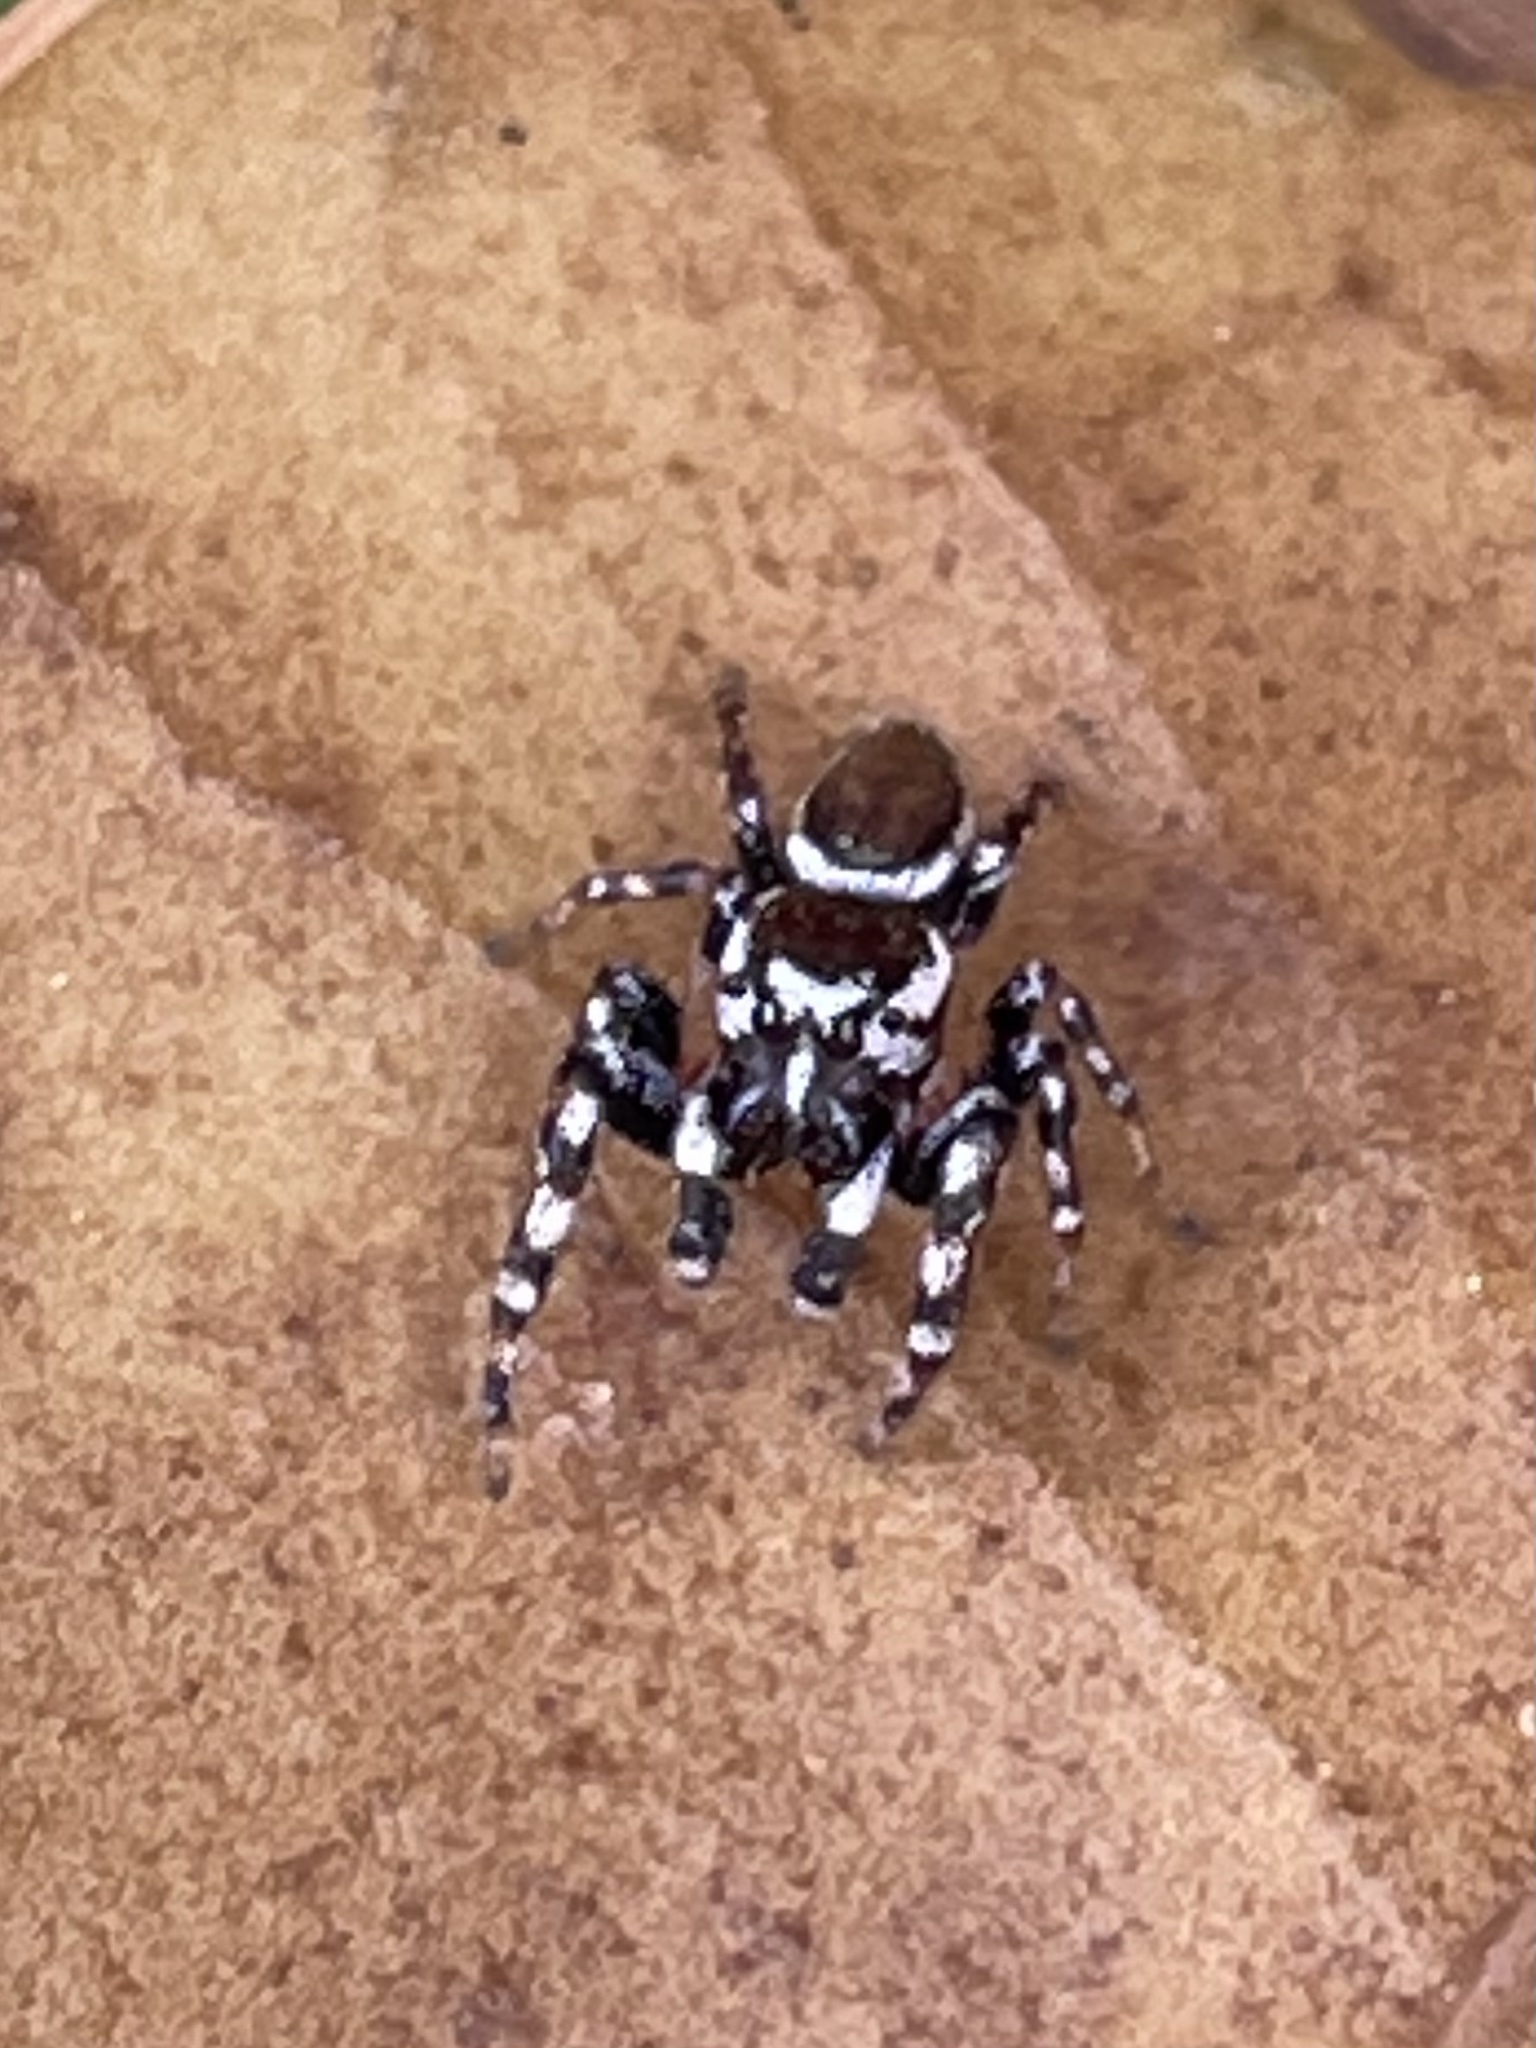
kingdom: Animalia
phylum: Arthropoda
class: Arachnida
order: Araneae
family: Salticidae
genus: Pelegrina
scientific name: Pelegrina proterva
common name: Common white-cheeked jumping spider
